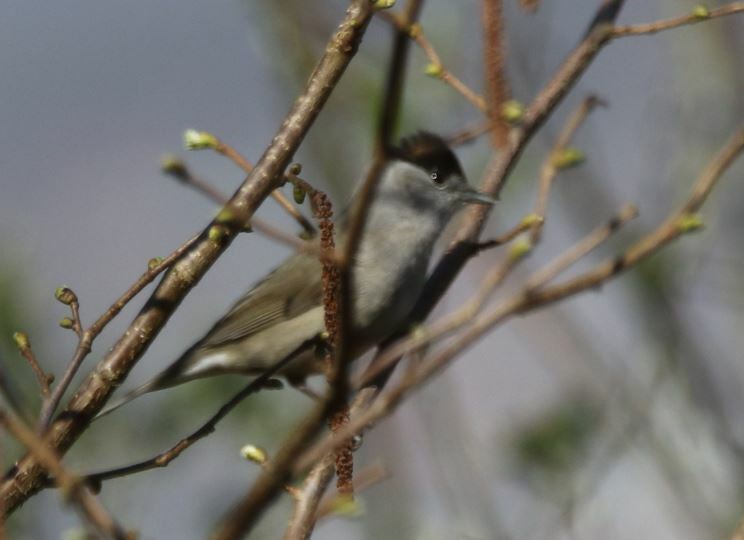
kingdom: Animalia
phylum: Chordata
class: Aves
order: Passeriformes
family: Sylviidae
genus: Sylvia
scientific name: Sylvia atricapilla
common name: Eurasian blackcap
